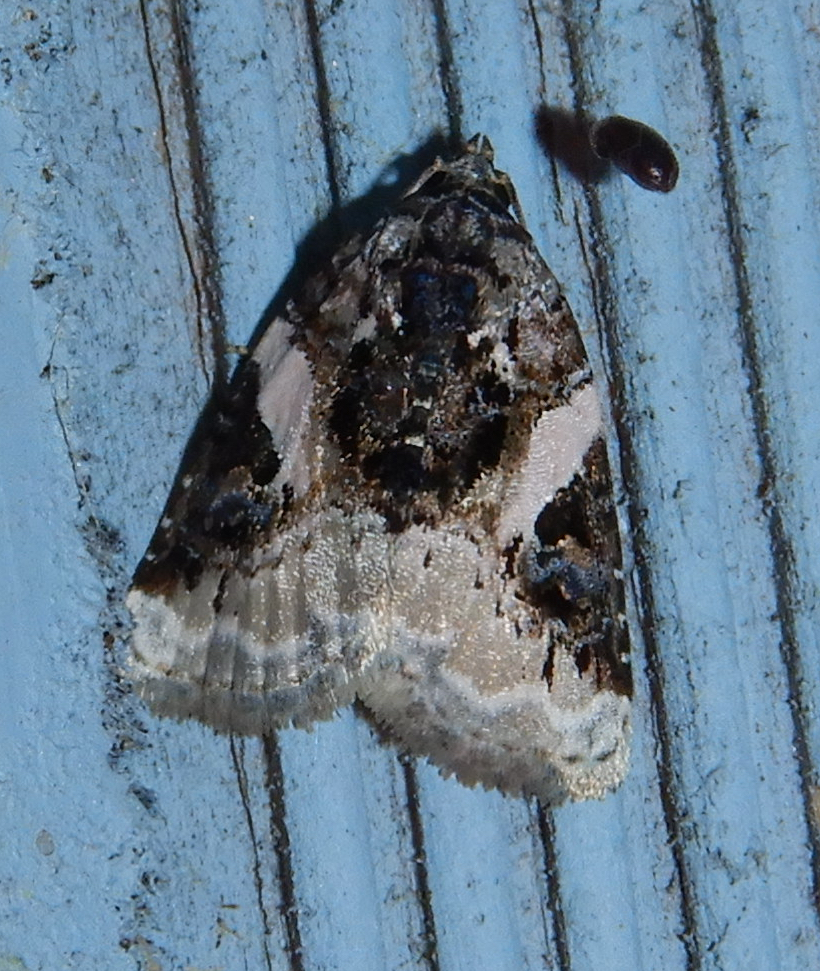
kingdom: Animalia
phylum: Arthropoda
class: Insecta
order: Lepidoptera
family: Noctuidae
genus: Pseudeustrotia
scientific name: Pseudeustrotia carneola
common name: Pink-barred lithacodia moth
